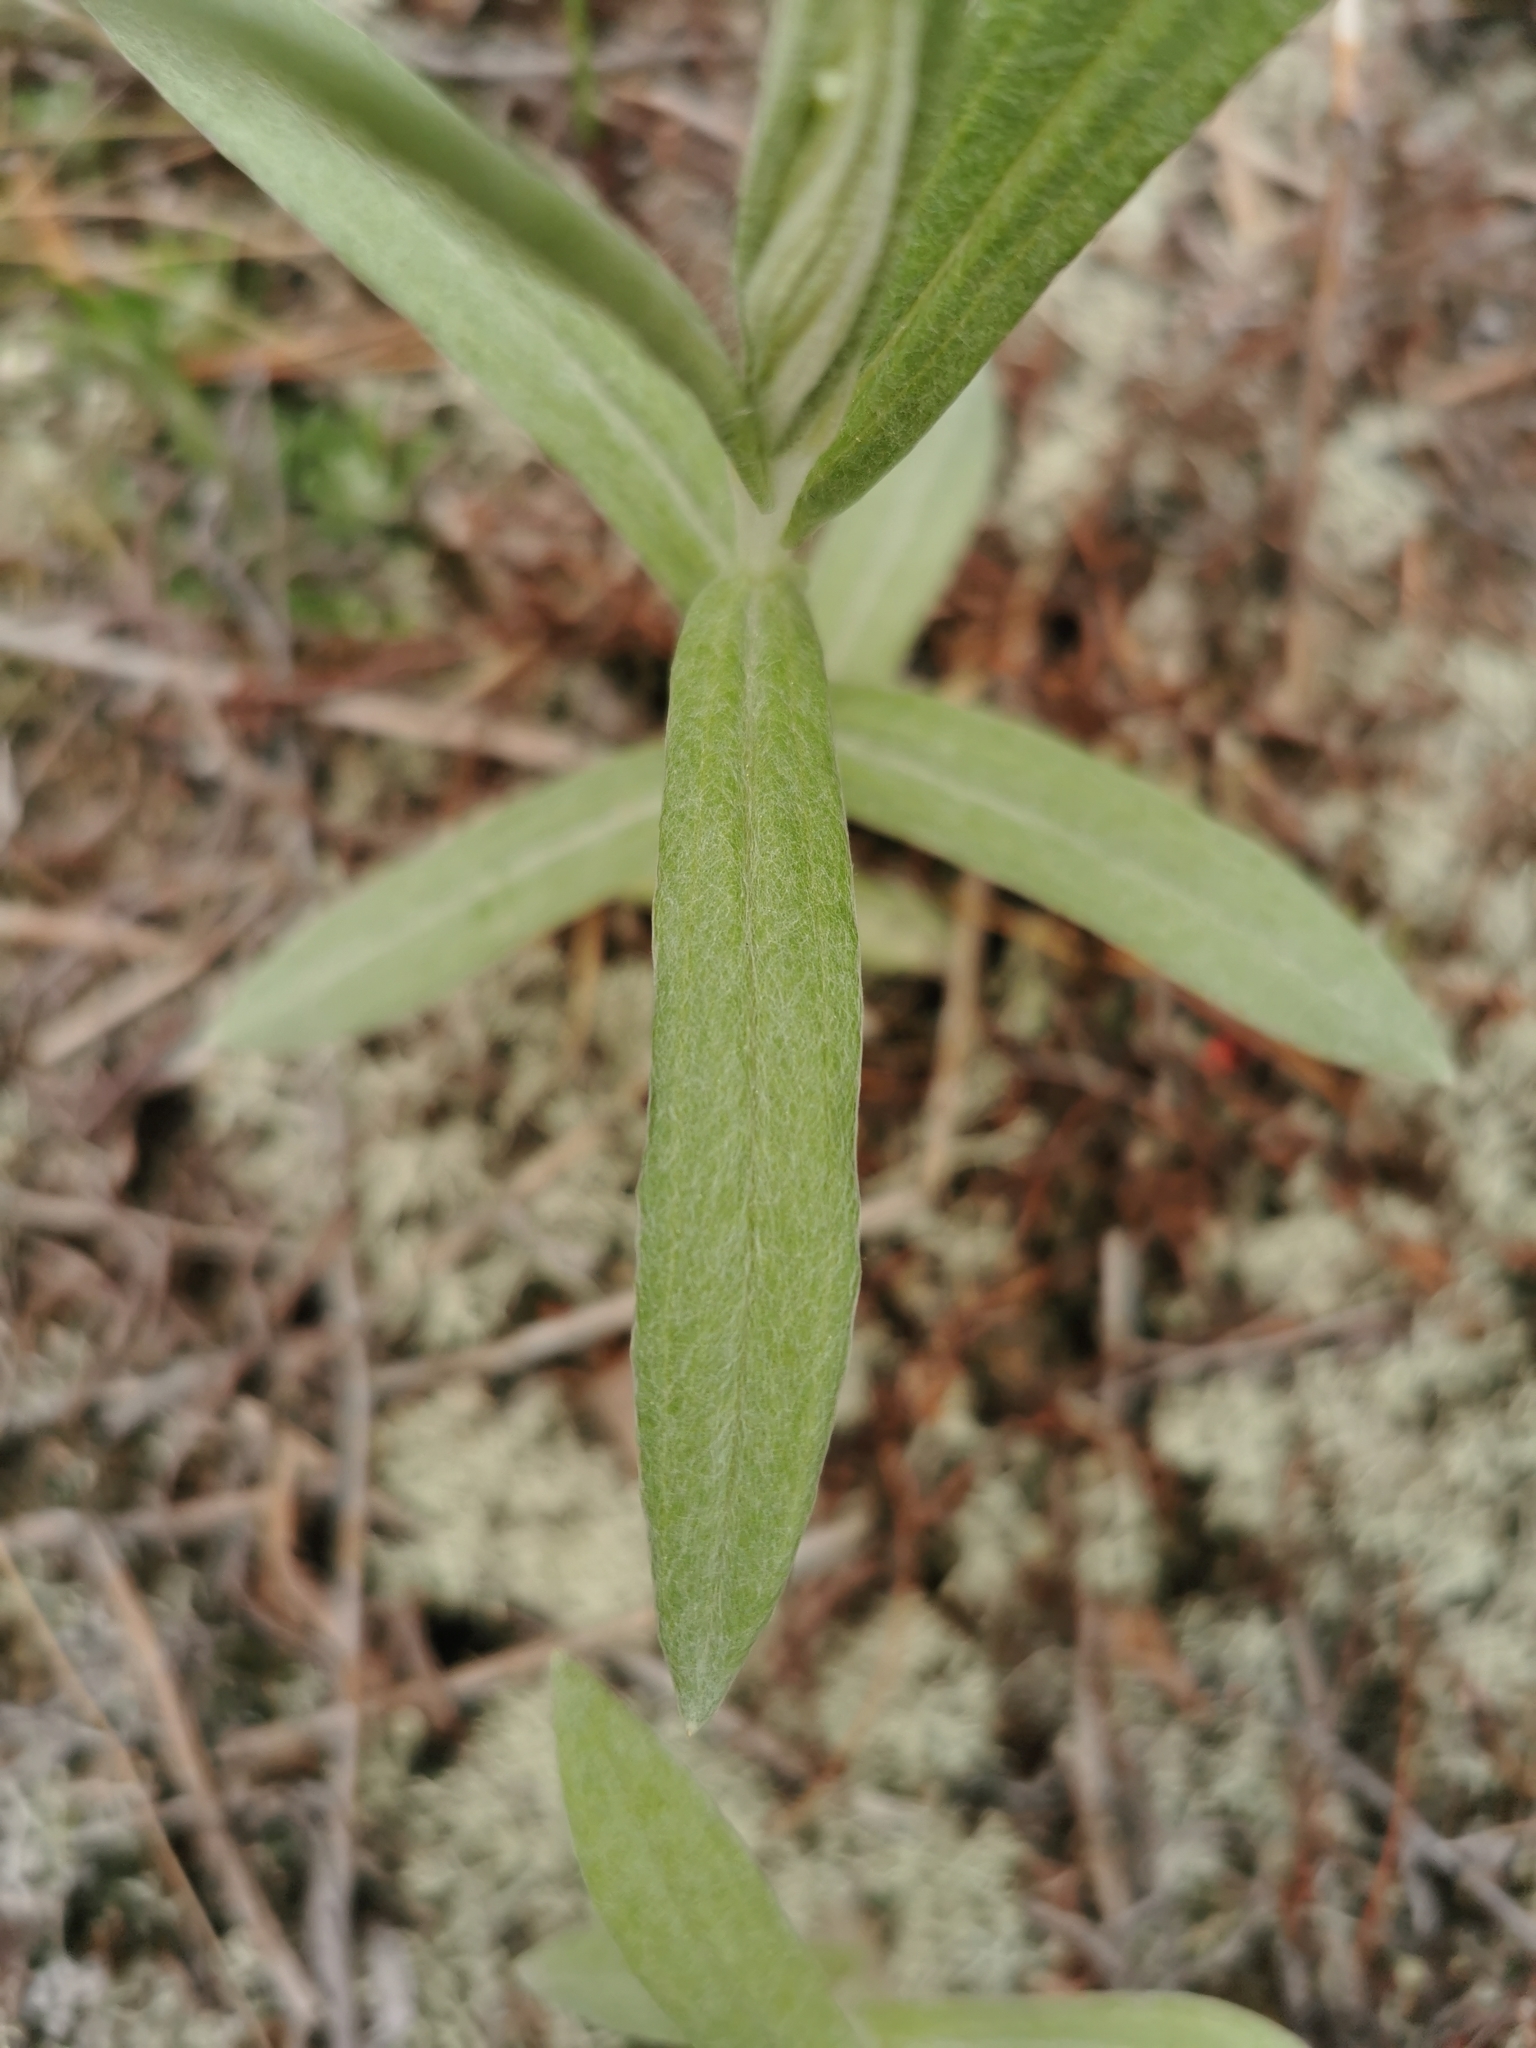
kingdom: Plantae
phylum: Tracheophyta
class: Magnoliopsida
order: Asterales
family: Asteraceae
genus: Anaphalis
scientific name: Anaphalis margaritacea
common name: Pearly everlasting
